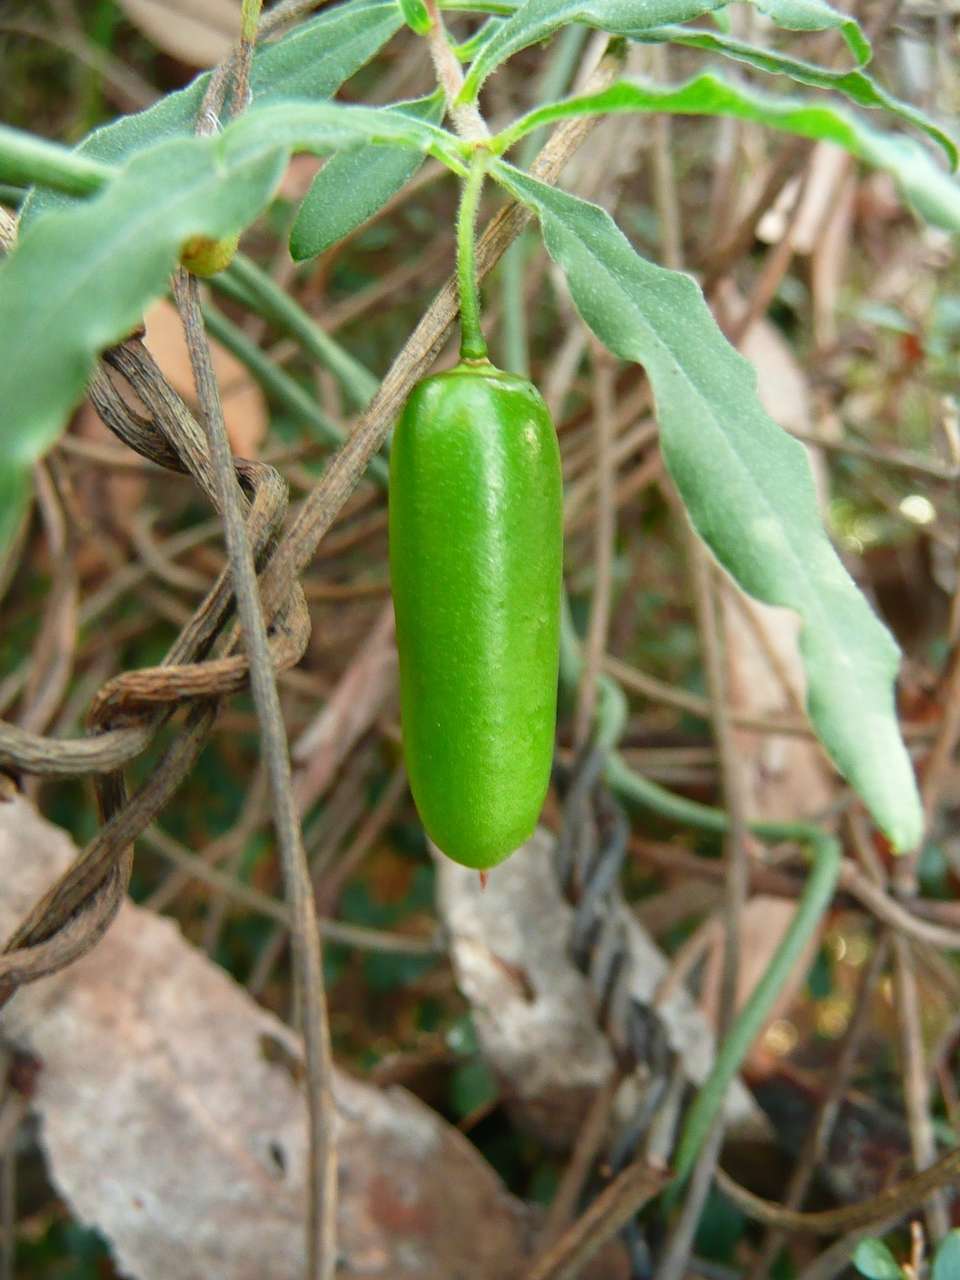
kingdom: Plantae
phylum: Tracheophyta
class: Magnoliopsida
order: Apiales
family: Pittosporaceae
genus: Billardiera
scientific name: Billardiera mutabilis
